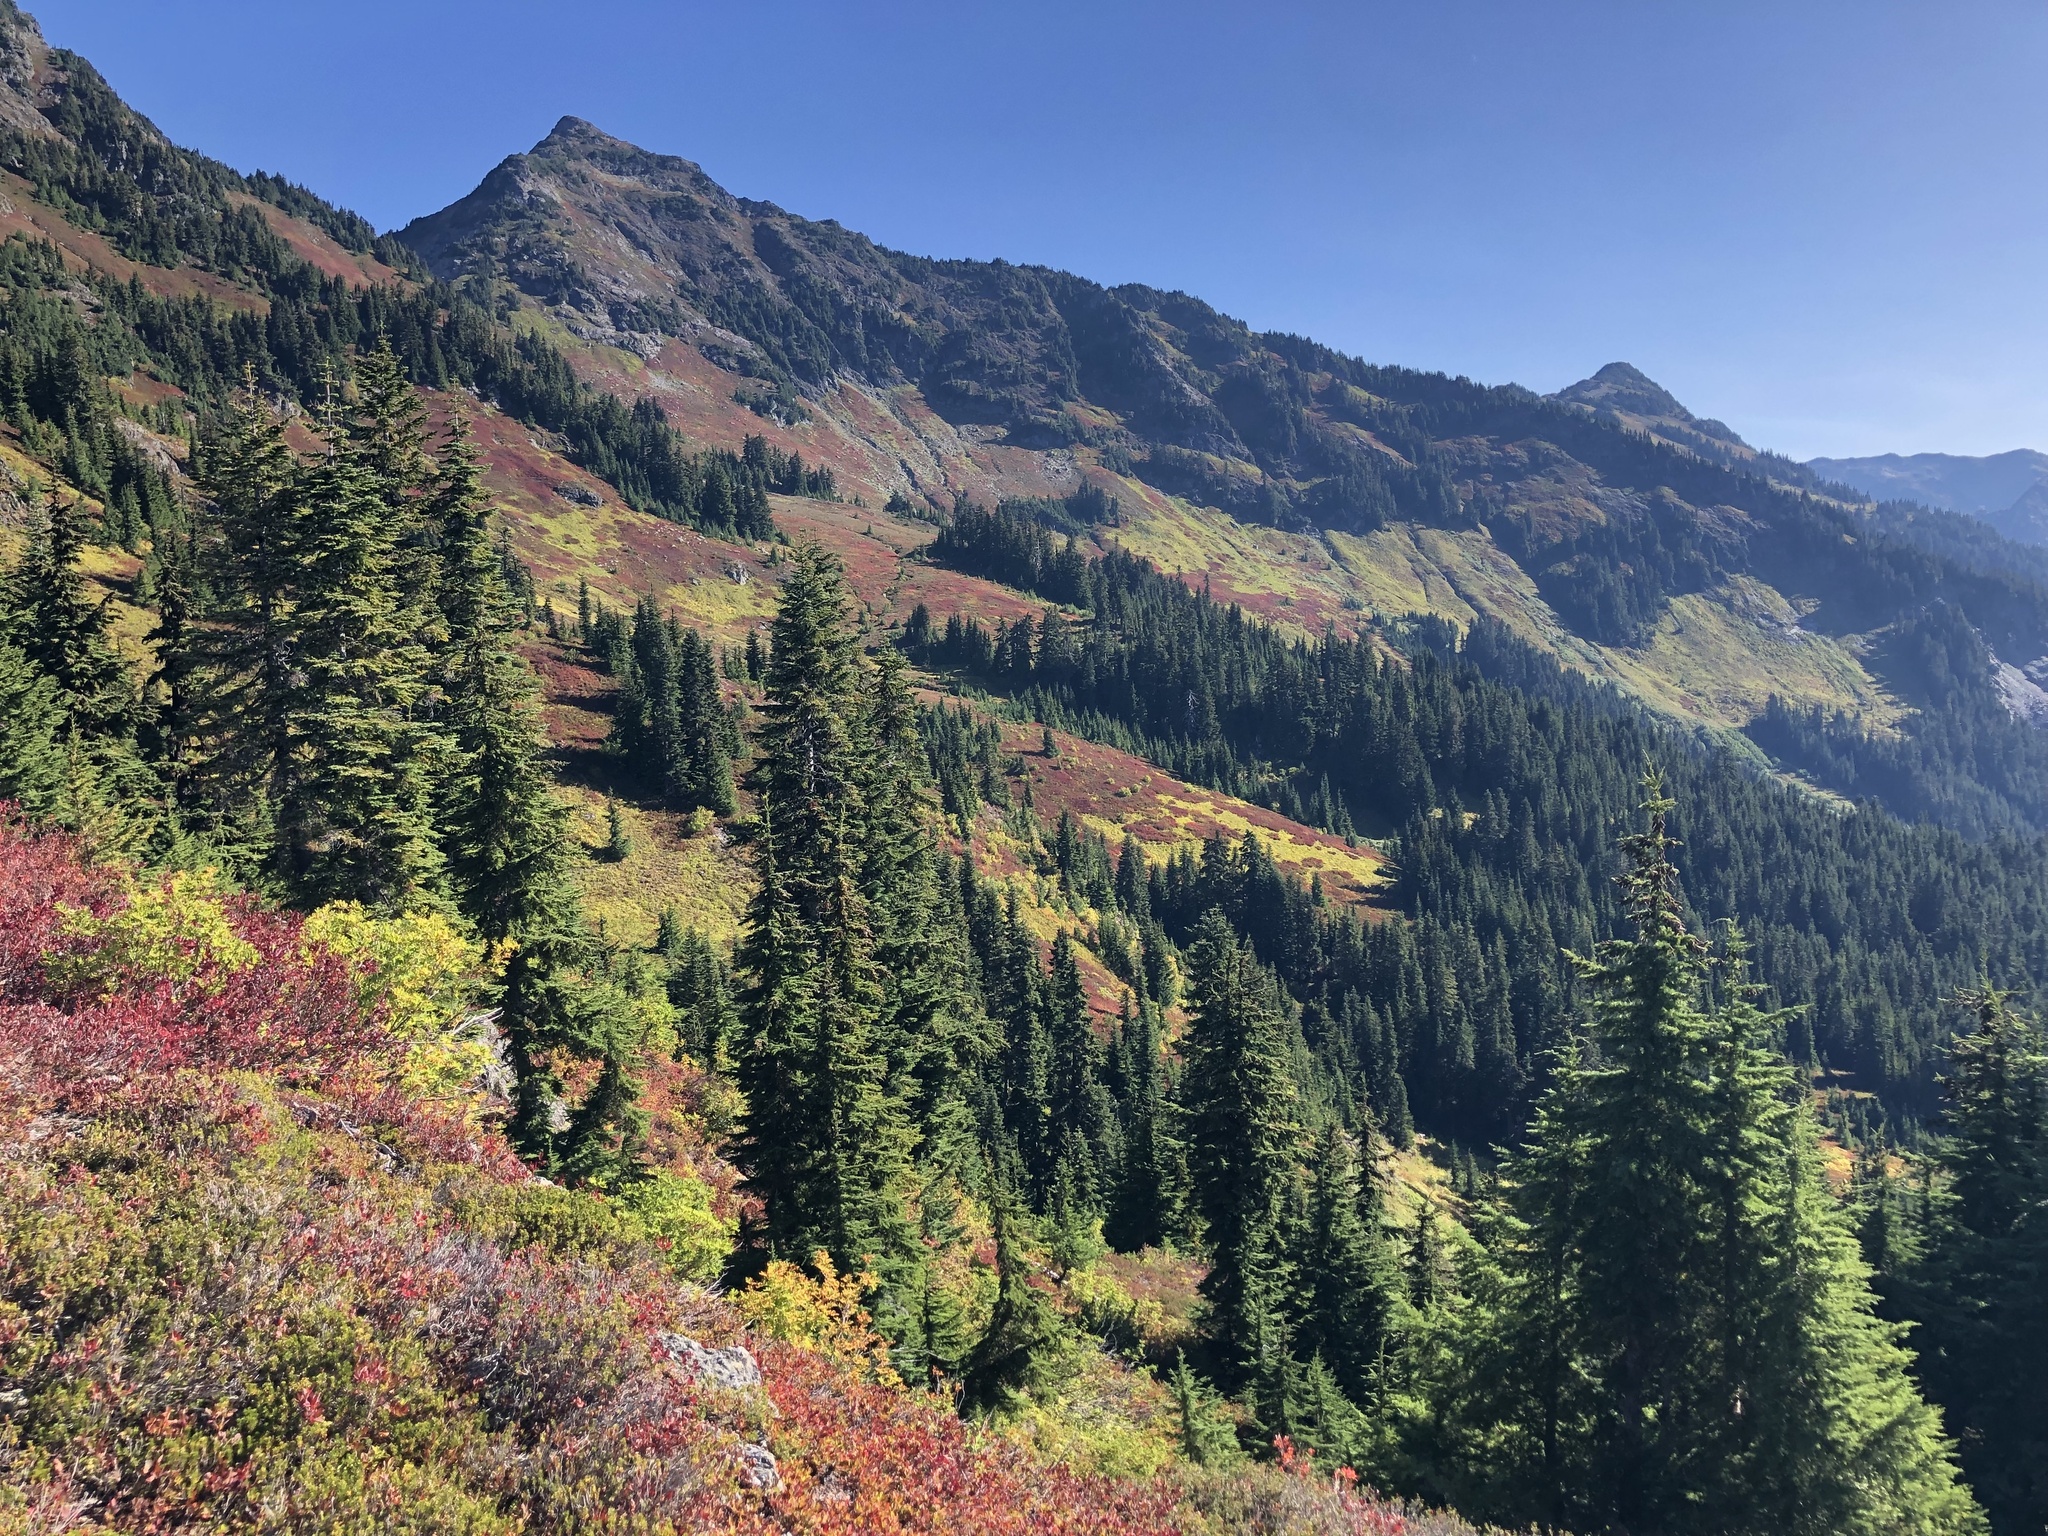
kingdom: Plantae
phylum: Tracheophyta
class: Pinopsida
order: Pinales
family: Pinaceae
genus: Tsuga
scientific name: Tsuga mertensiana
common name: Mountain hemlock
